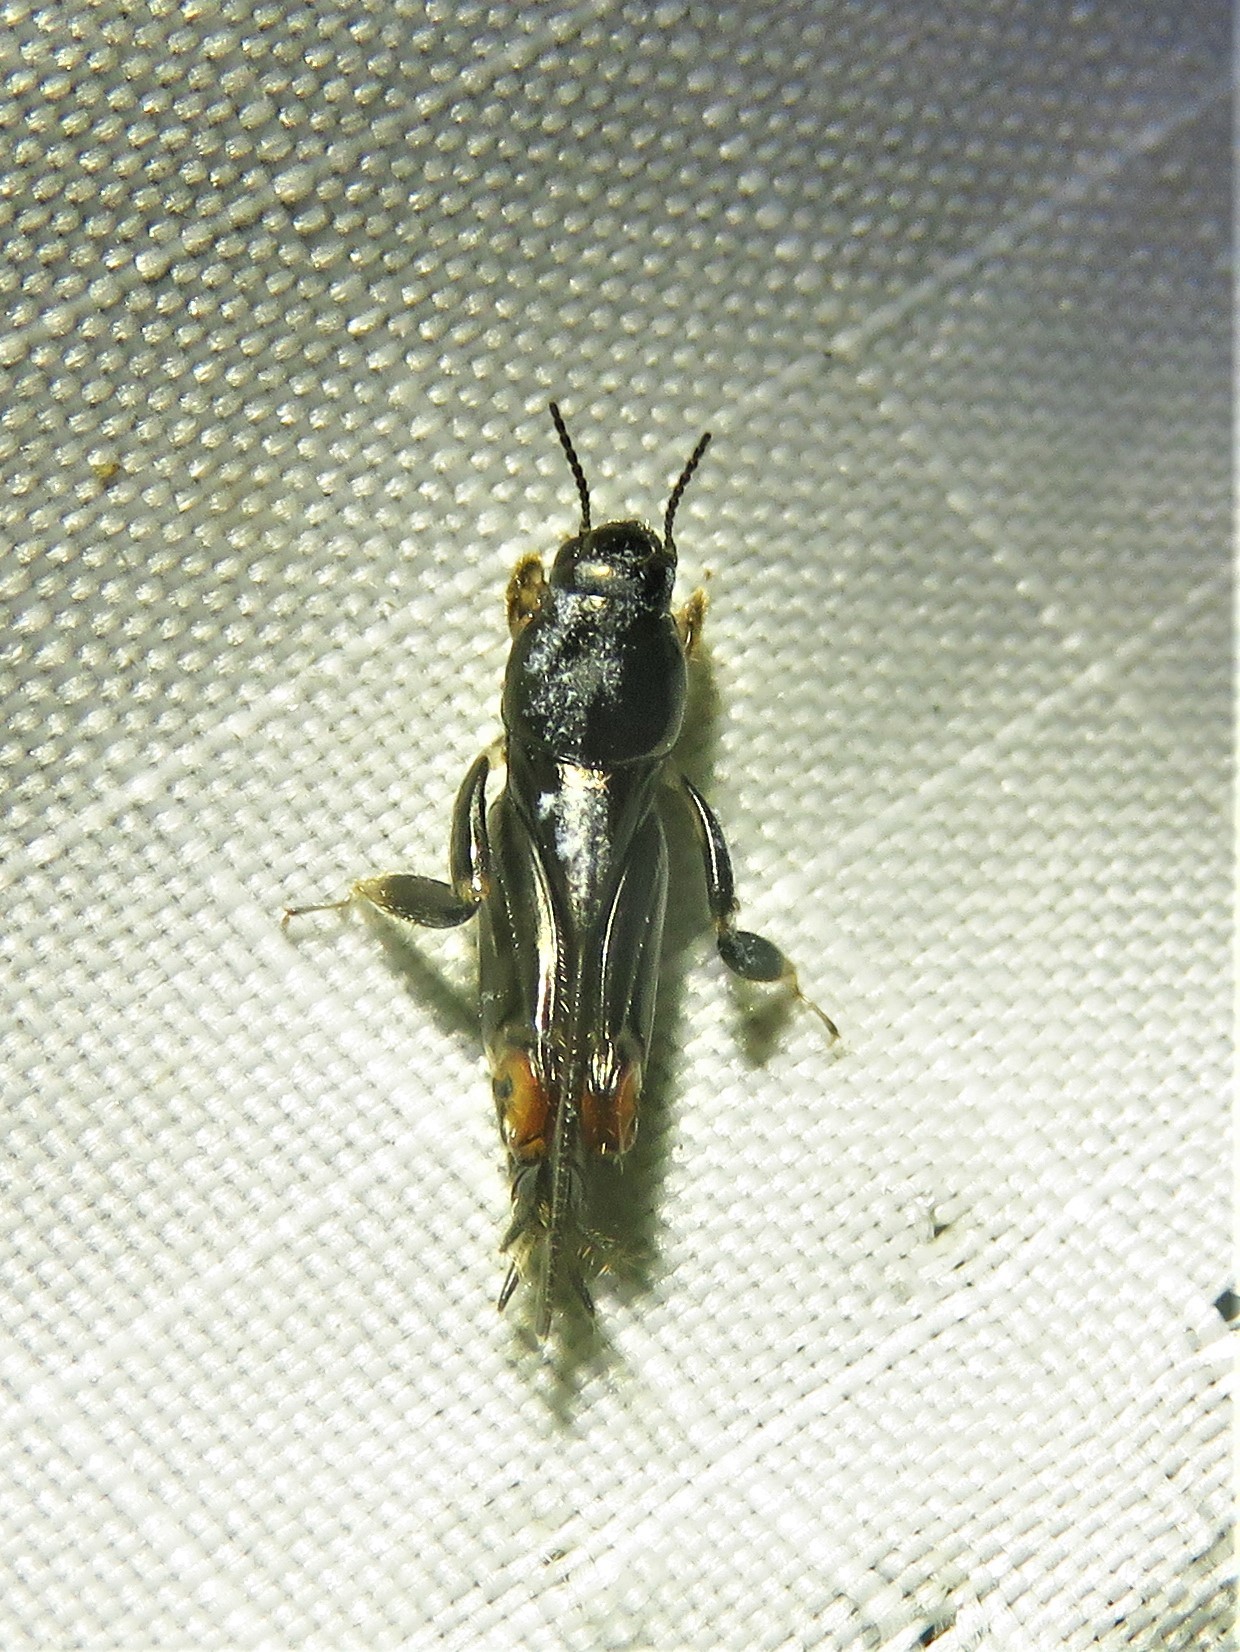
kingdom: Animalia
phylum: Arthropoda
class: Insecta
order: Orthoptera
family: Tridactylidae
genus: Neotridactylus
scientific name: Neotridactylus apicialis
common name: Larger pygmy locust
